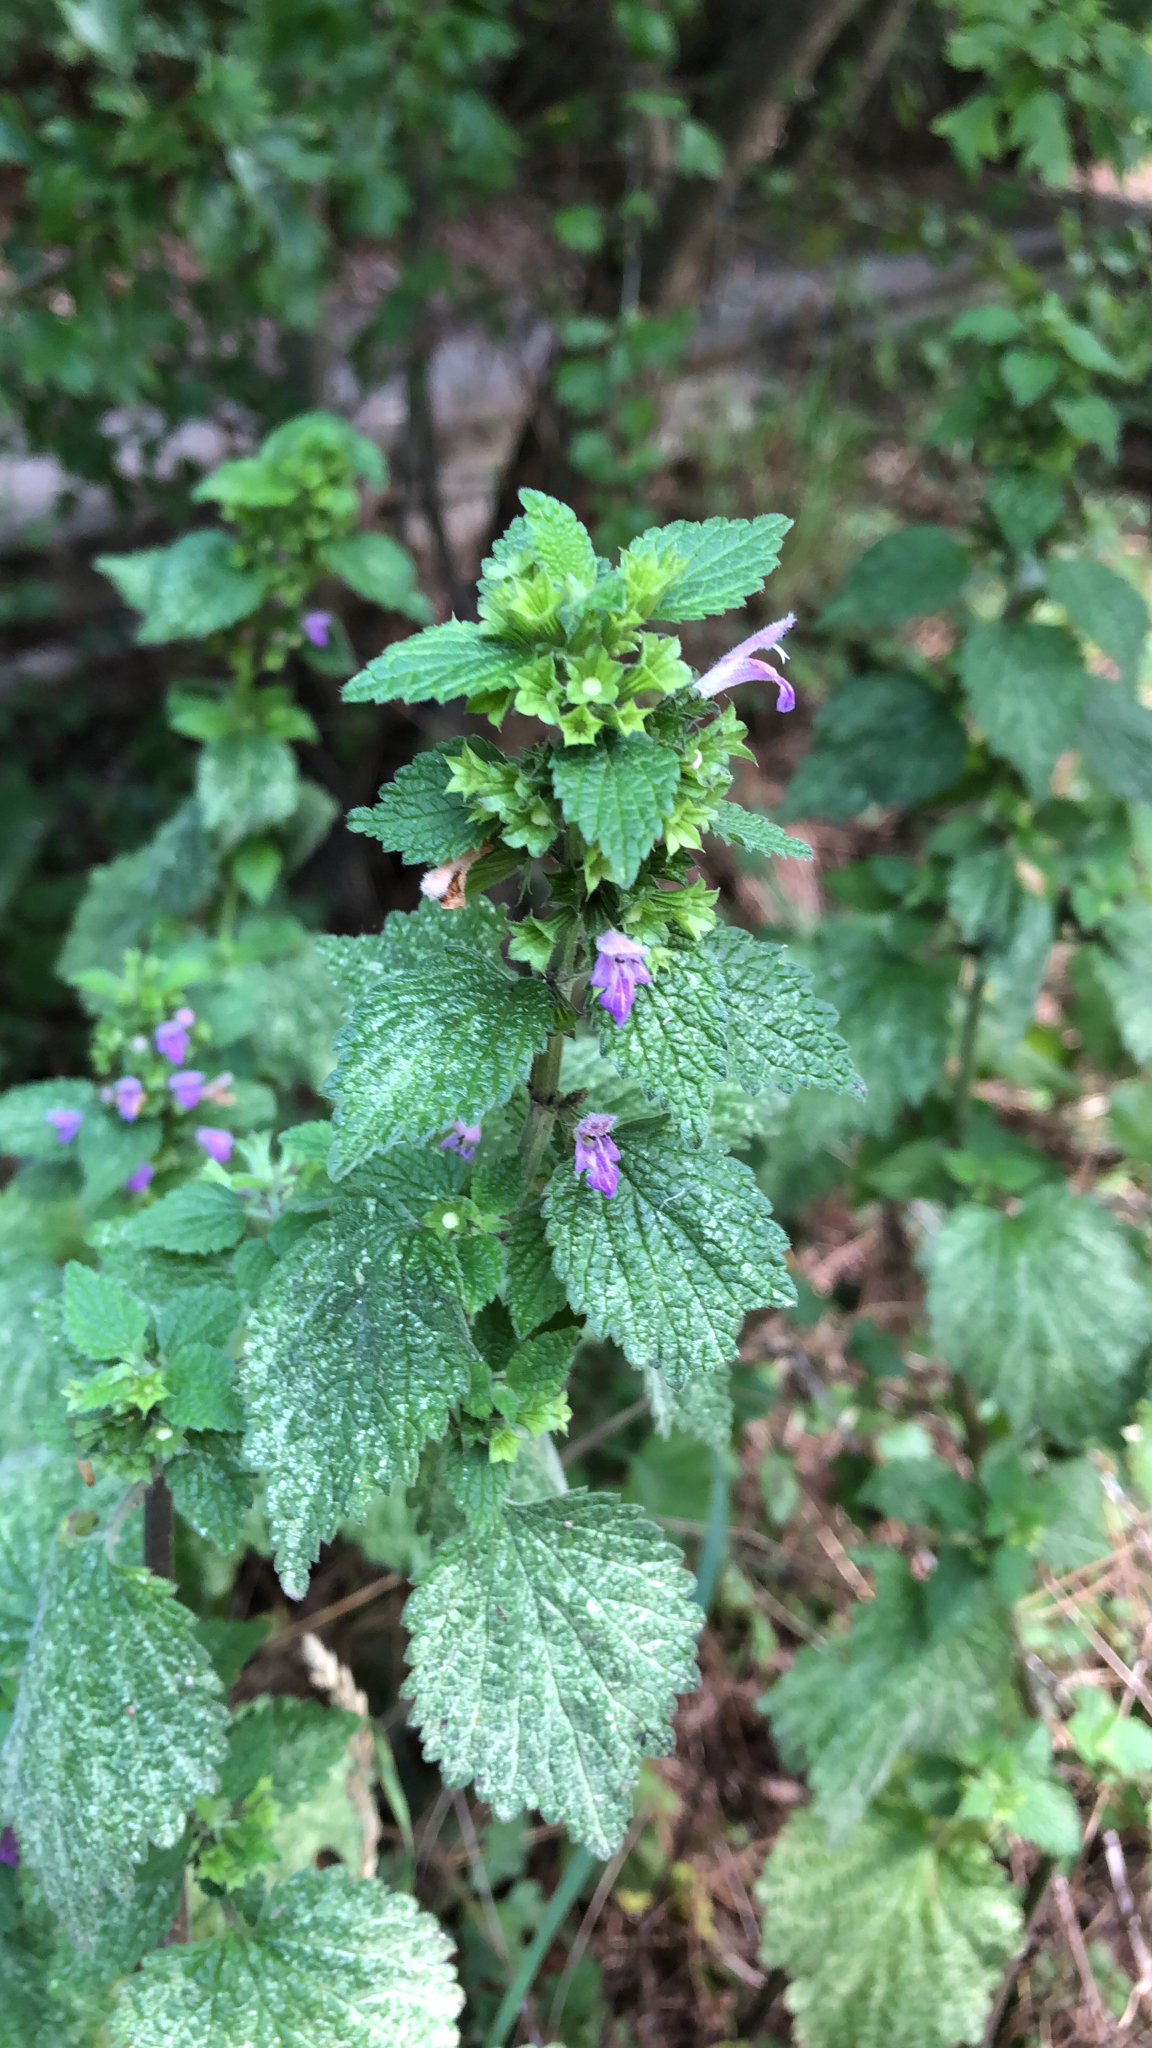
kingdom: Plantae
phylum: Tracheophyta
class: Magnoliopsida
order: Lamiales
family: Lamiaceae
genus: Ballota
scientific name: Ballota nigra
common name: Black horehound
